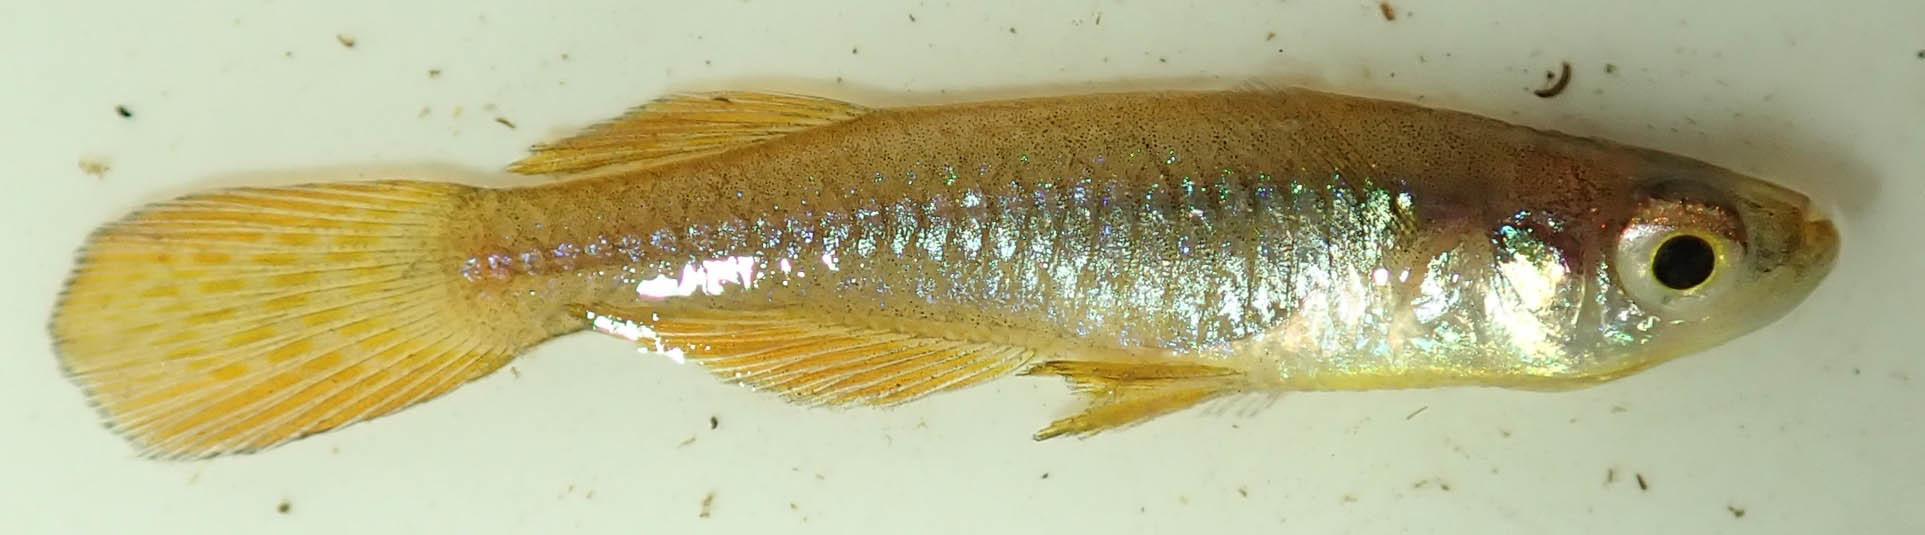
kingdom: Animalia
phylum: Chordata
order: Cyprinodontiformes
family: Poeciliidae
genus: Micropanchax
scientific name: Micropanchax johnstoni
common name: Johnston's topminnow
